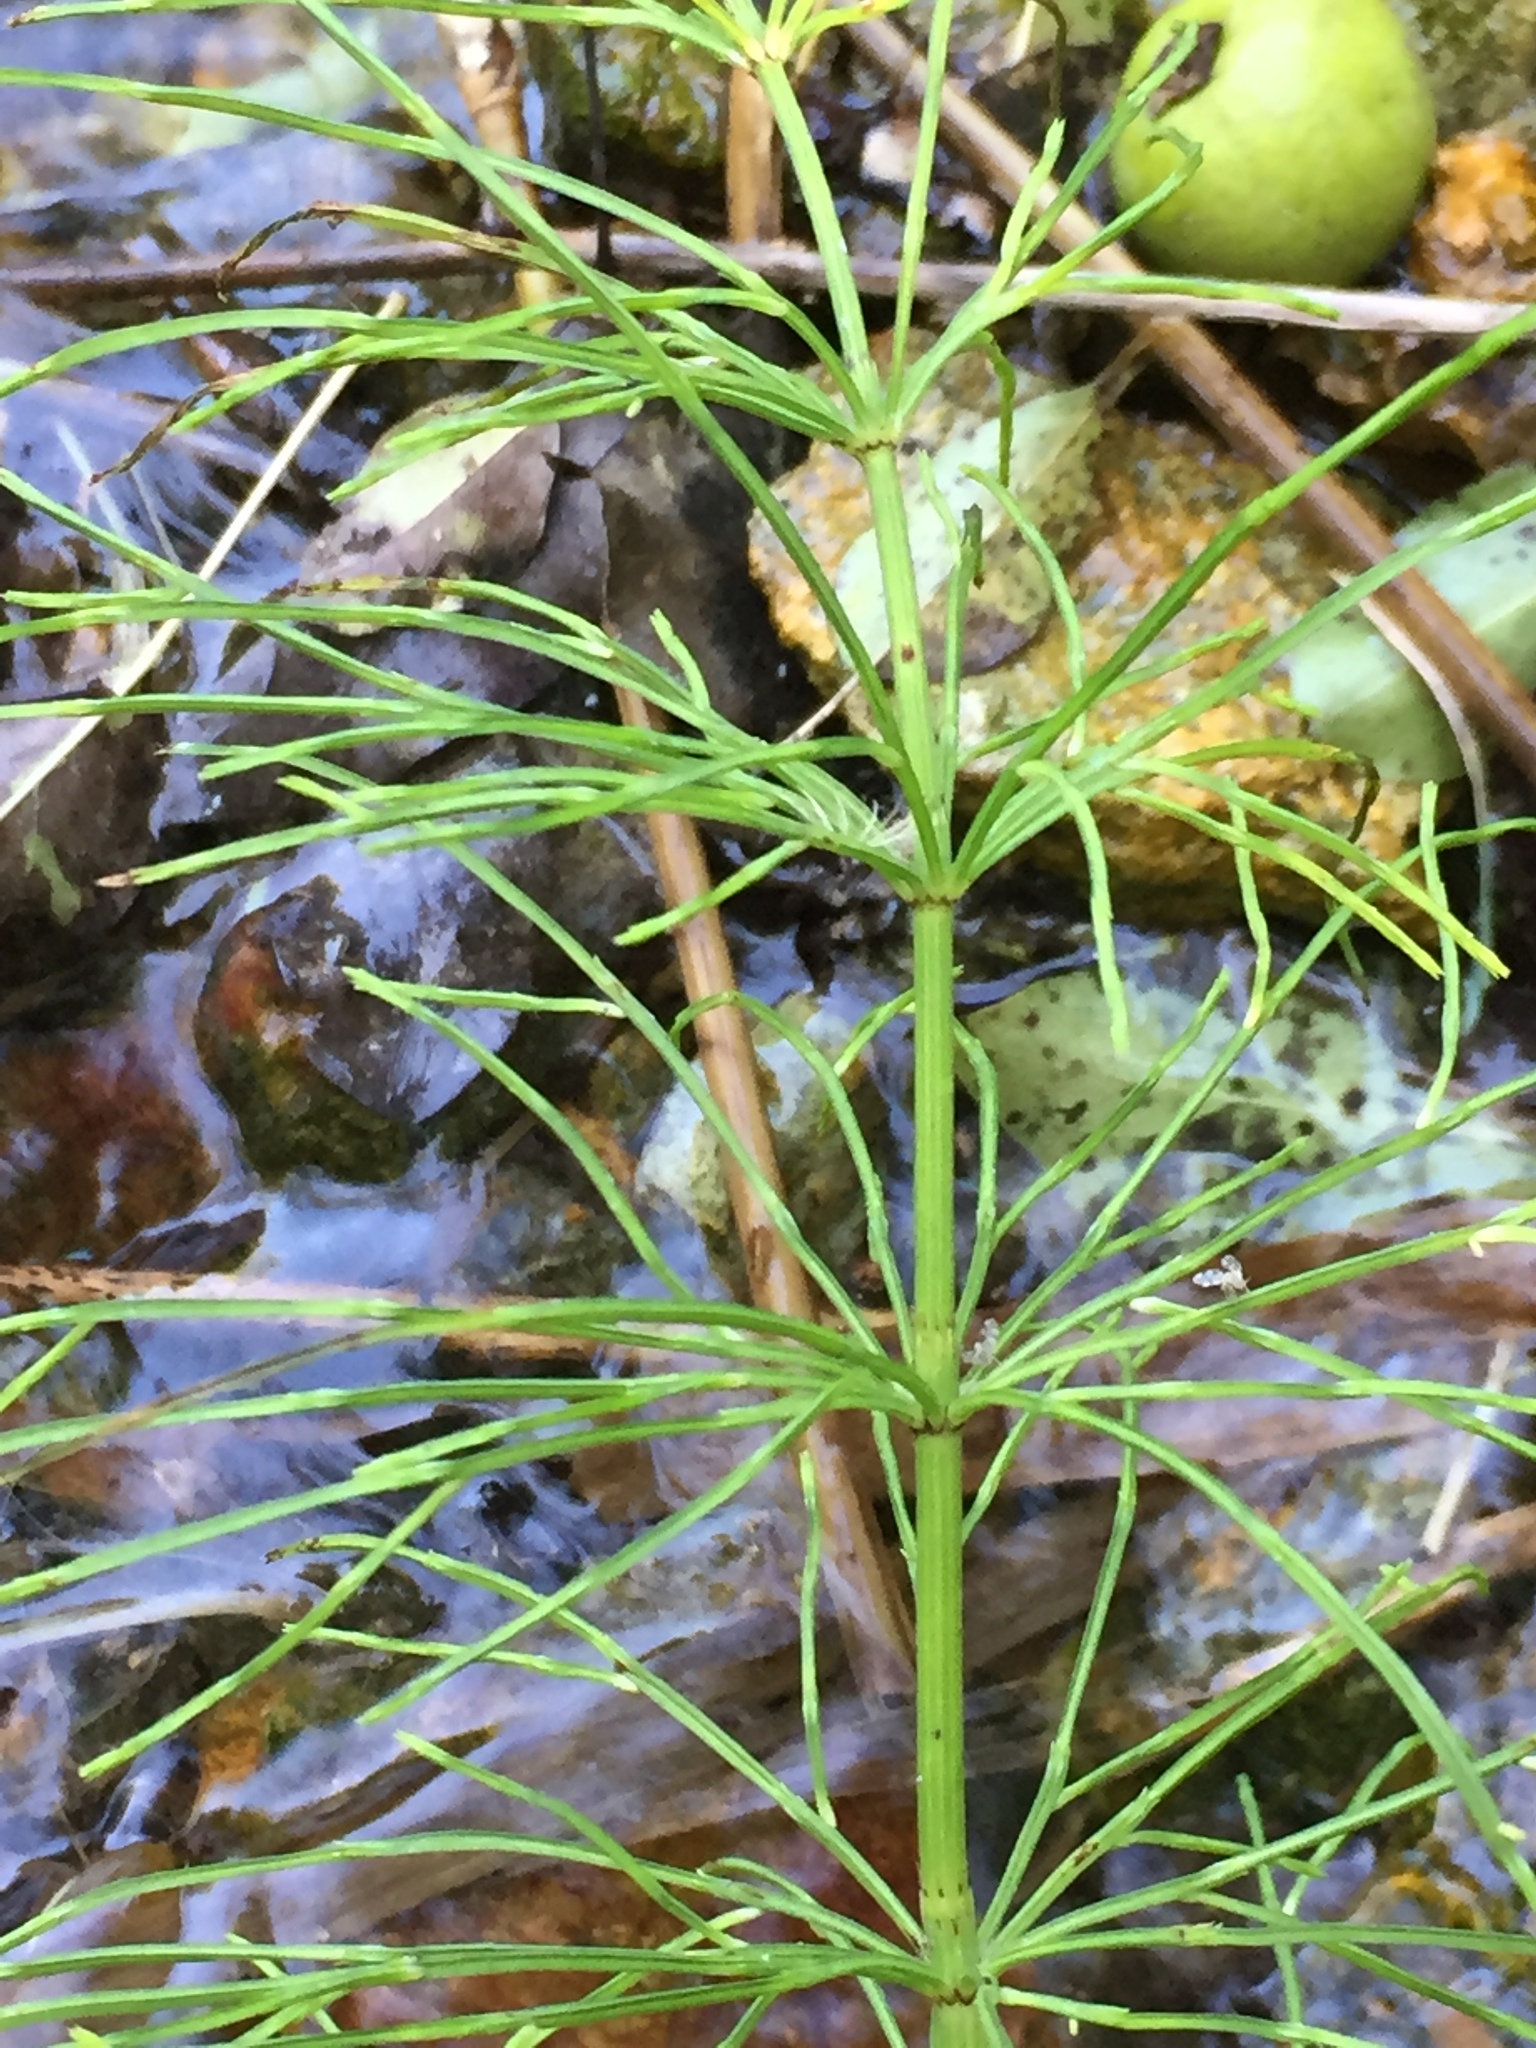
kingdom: Plantae
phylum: Tracheophyta
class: Polypodiopsida
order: Equisetales
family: Equisetaceae
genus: Equisetum
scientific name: Equisetum arvense
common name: Field horsetail
